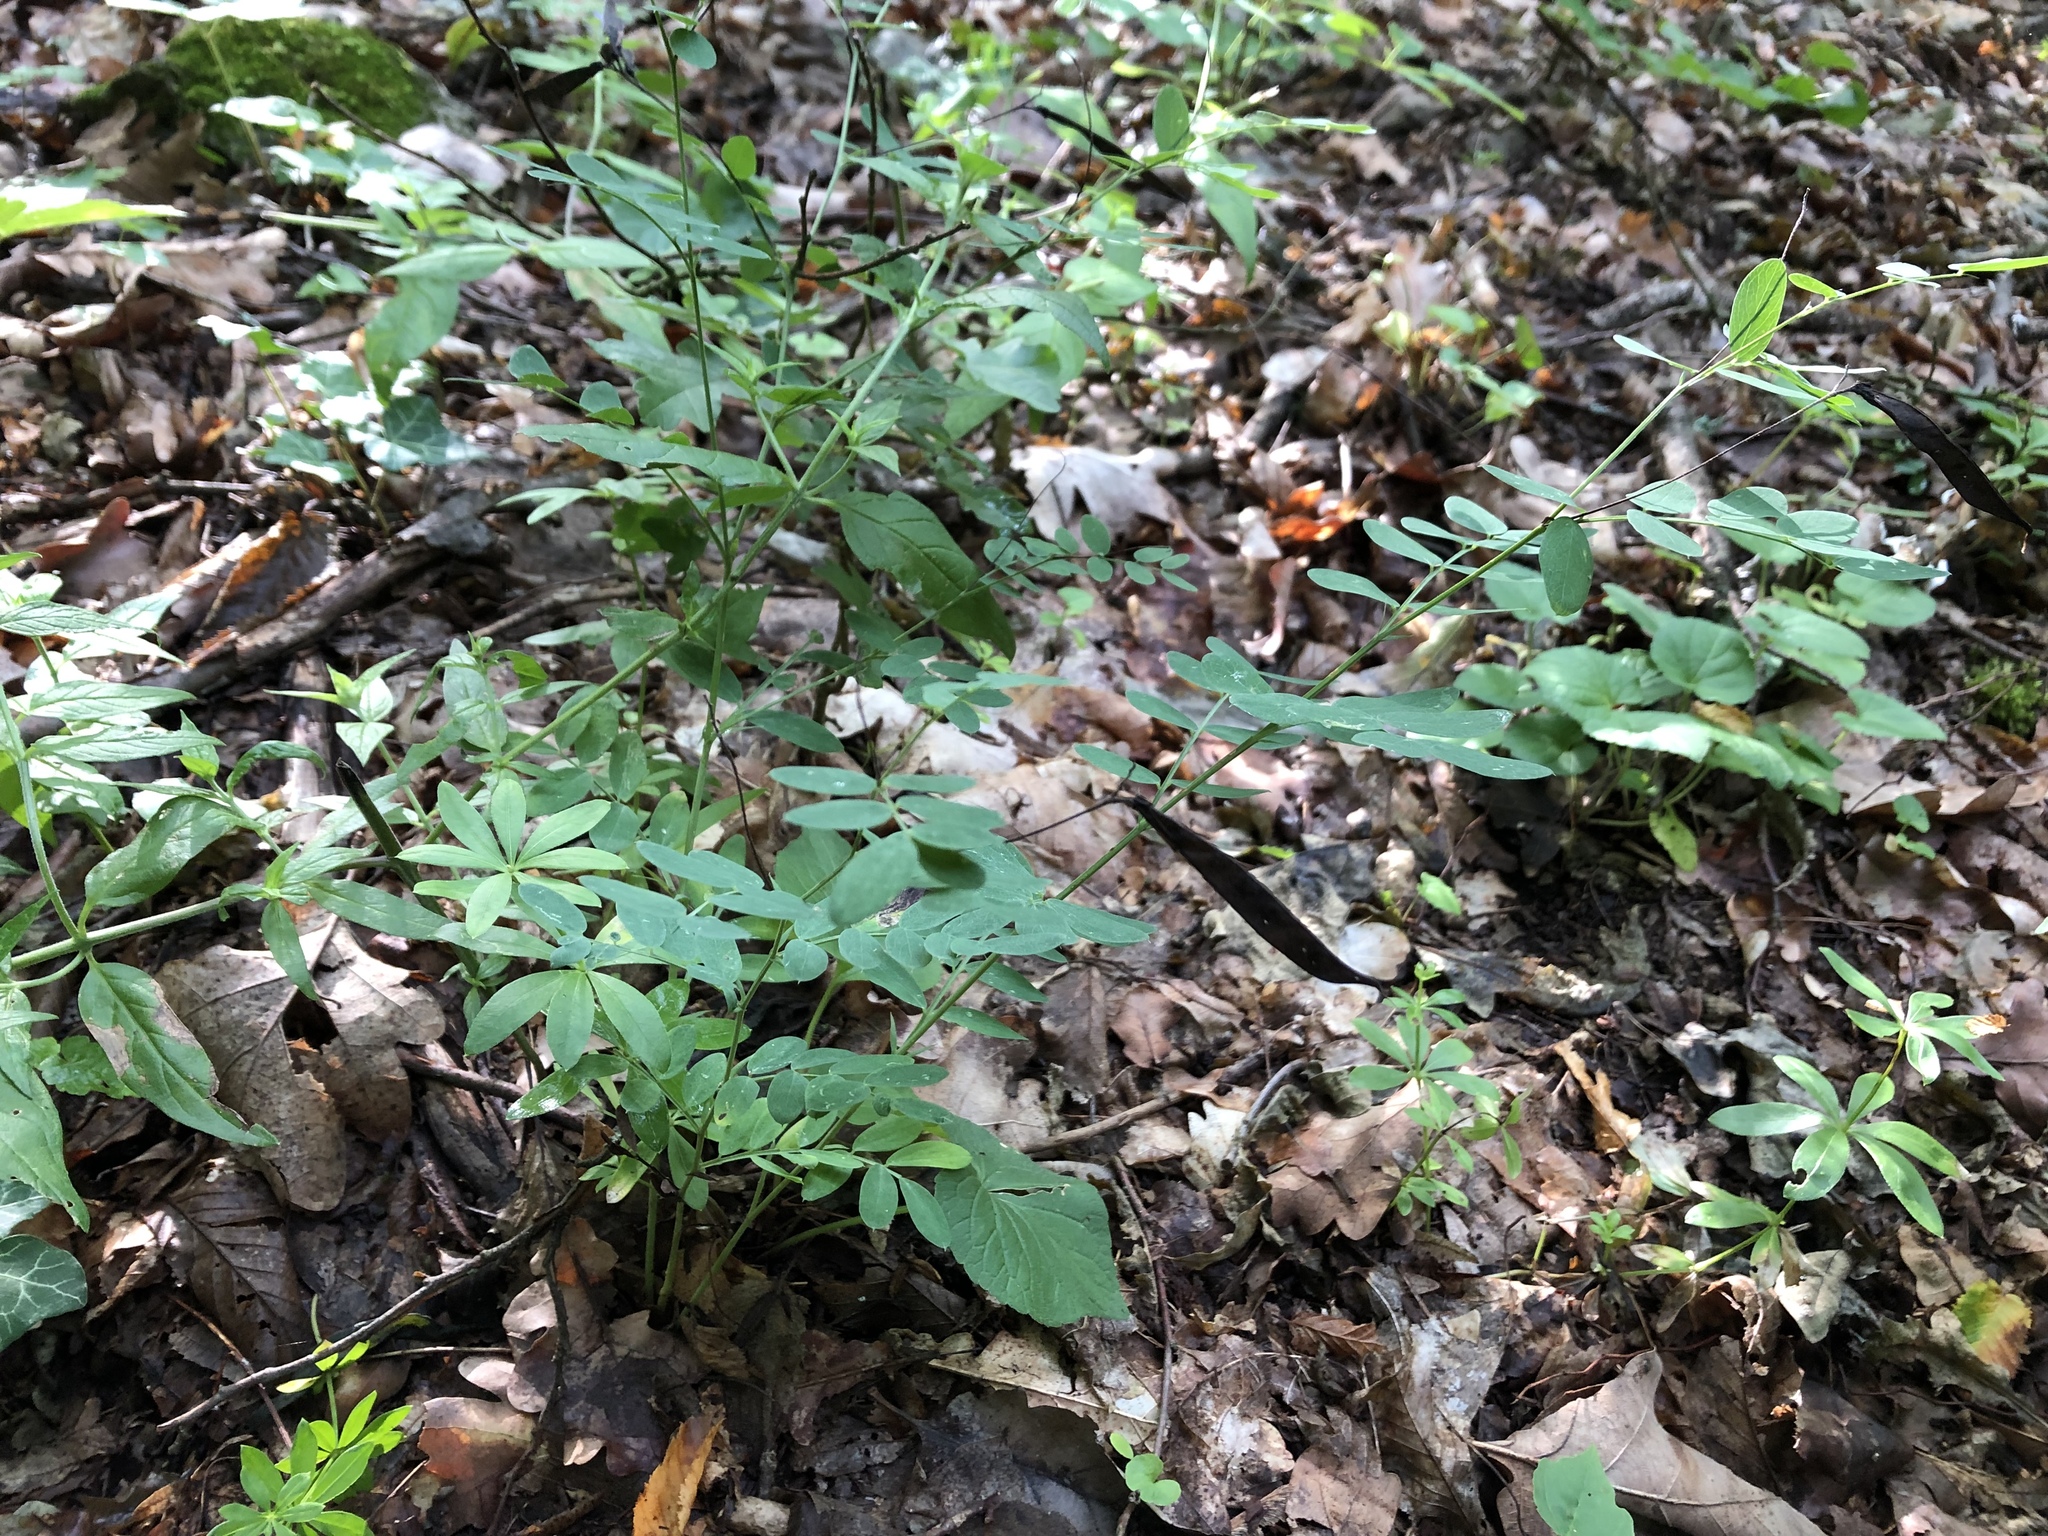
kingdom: Plantae
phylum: Tracheophyta
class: Magnoliopsida
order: Fabales
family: Fabaceae
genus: Lathyrus
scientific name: Lathyrus niger
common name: Black pea
